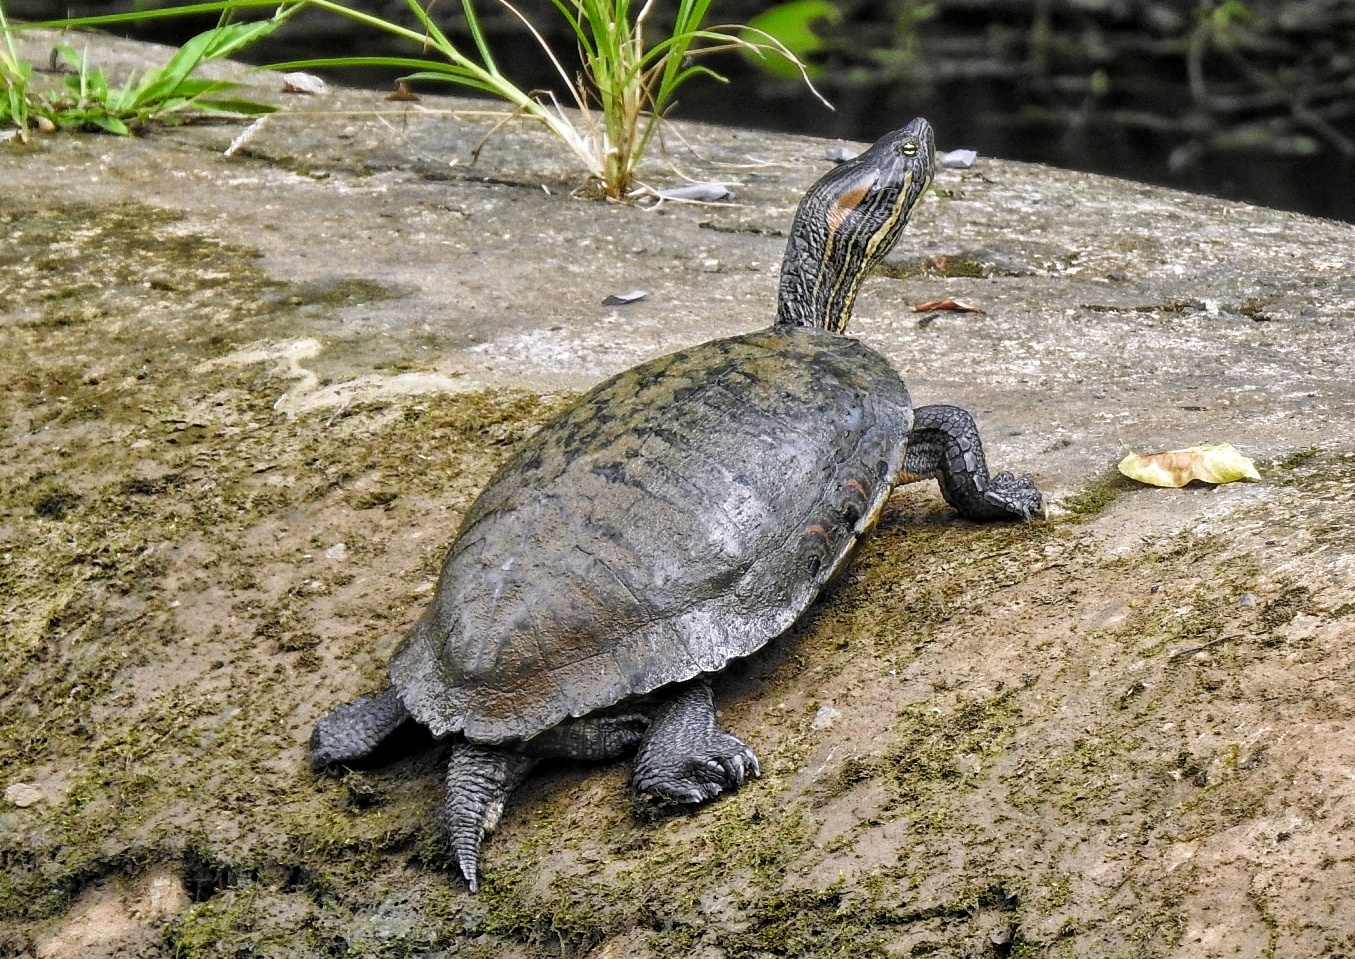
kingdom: Animalia
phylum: Chordata
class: Testudines
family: Emydidae
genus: Trachemys
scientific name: Trachemys venusta
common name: Mesoamerican slider
